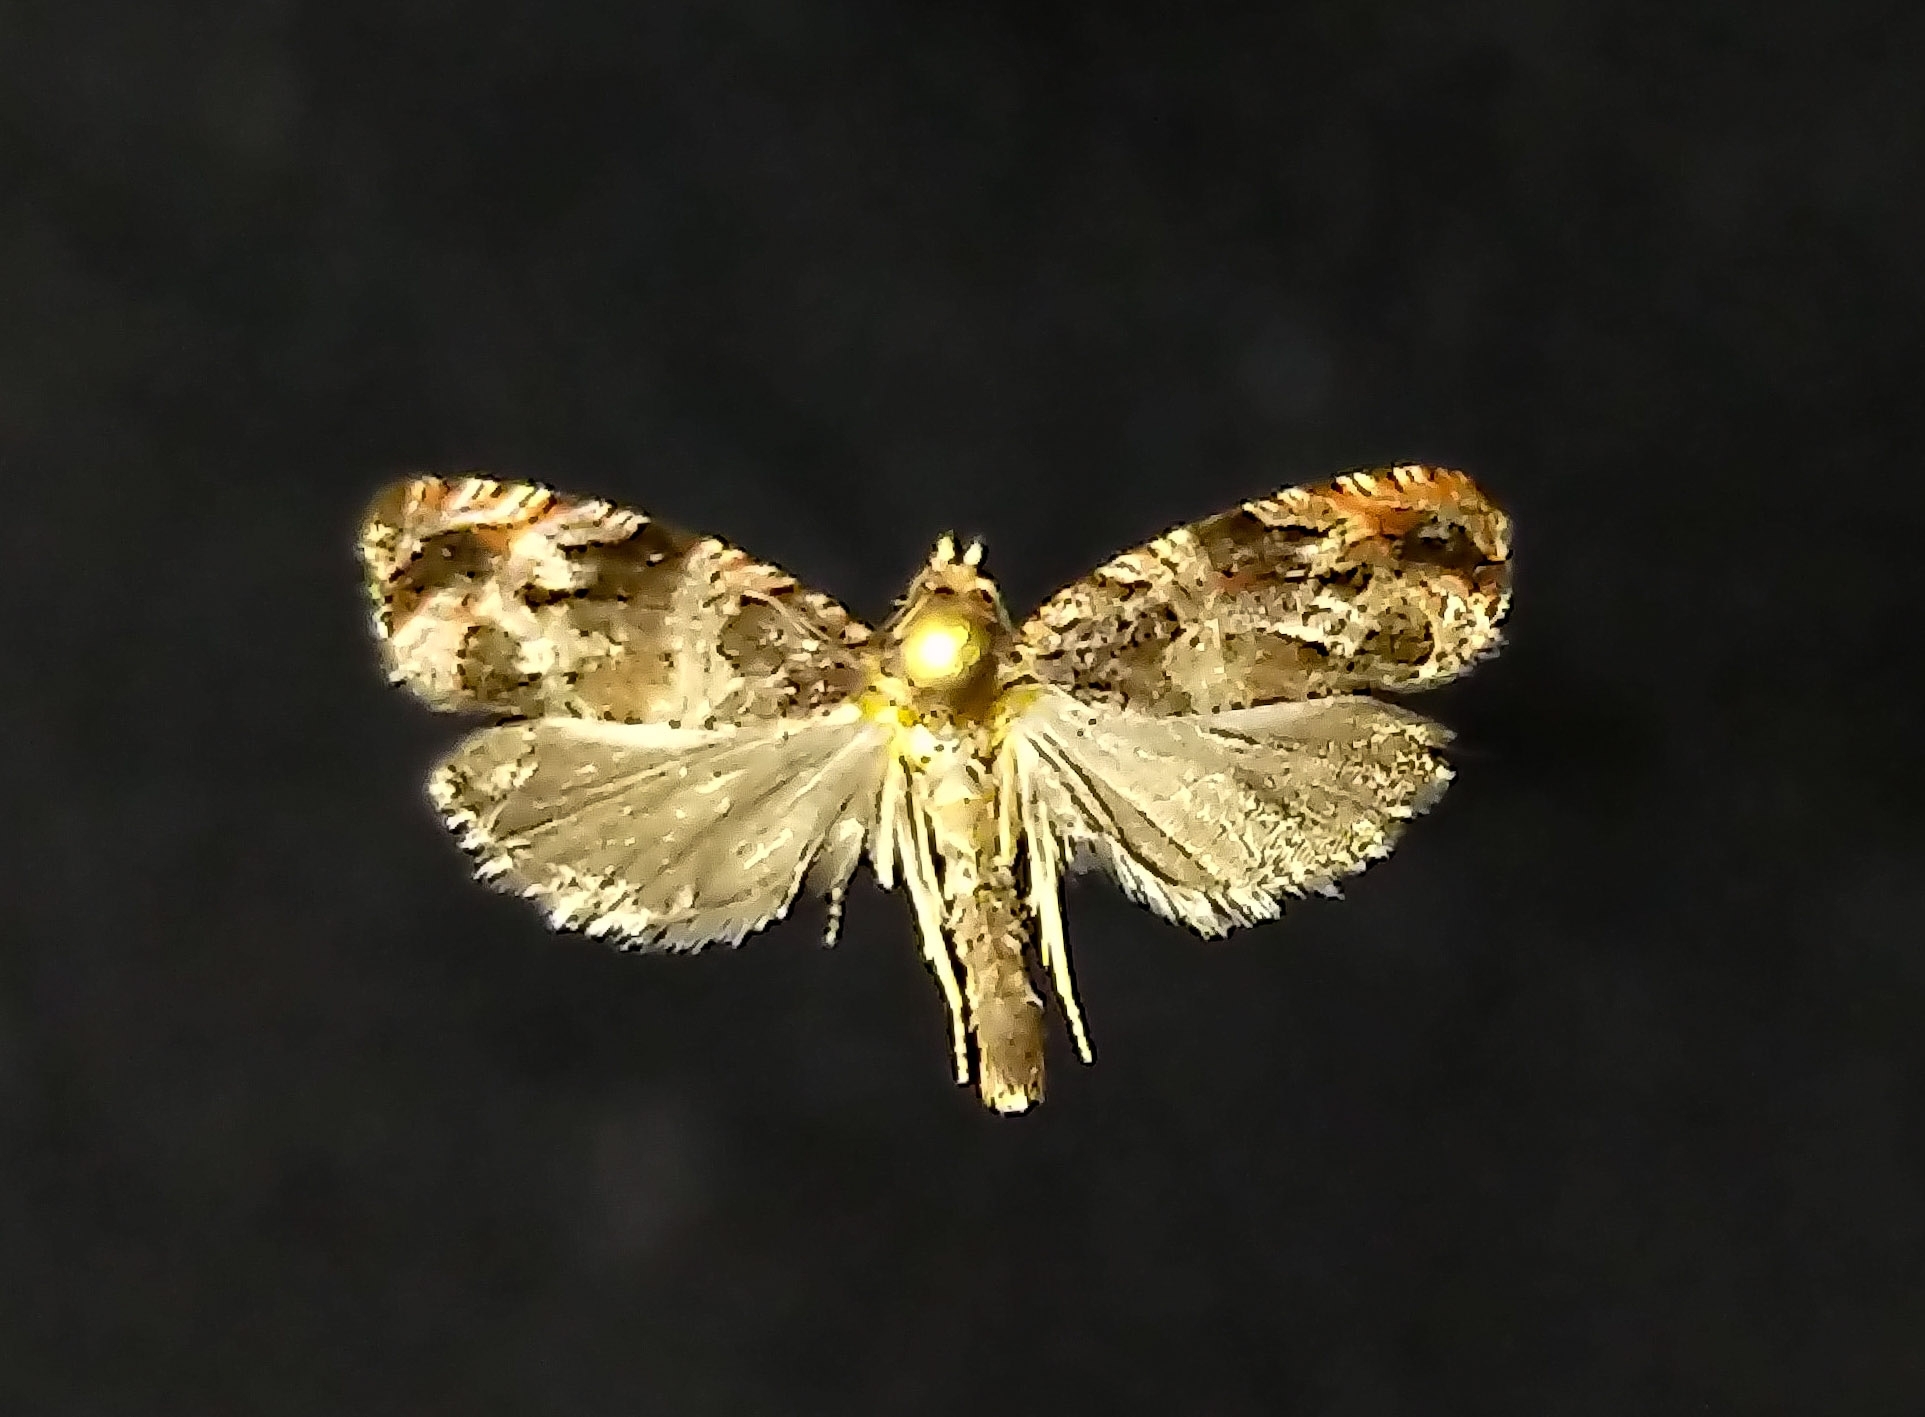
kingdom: Animalia
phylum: Arthropoda
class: Insecta
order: Lepidoptera
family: Tortricidae
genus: Olethreutes
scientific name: Olethreutes rusticanum
